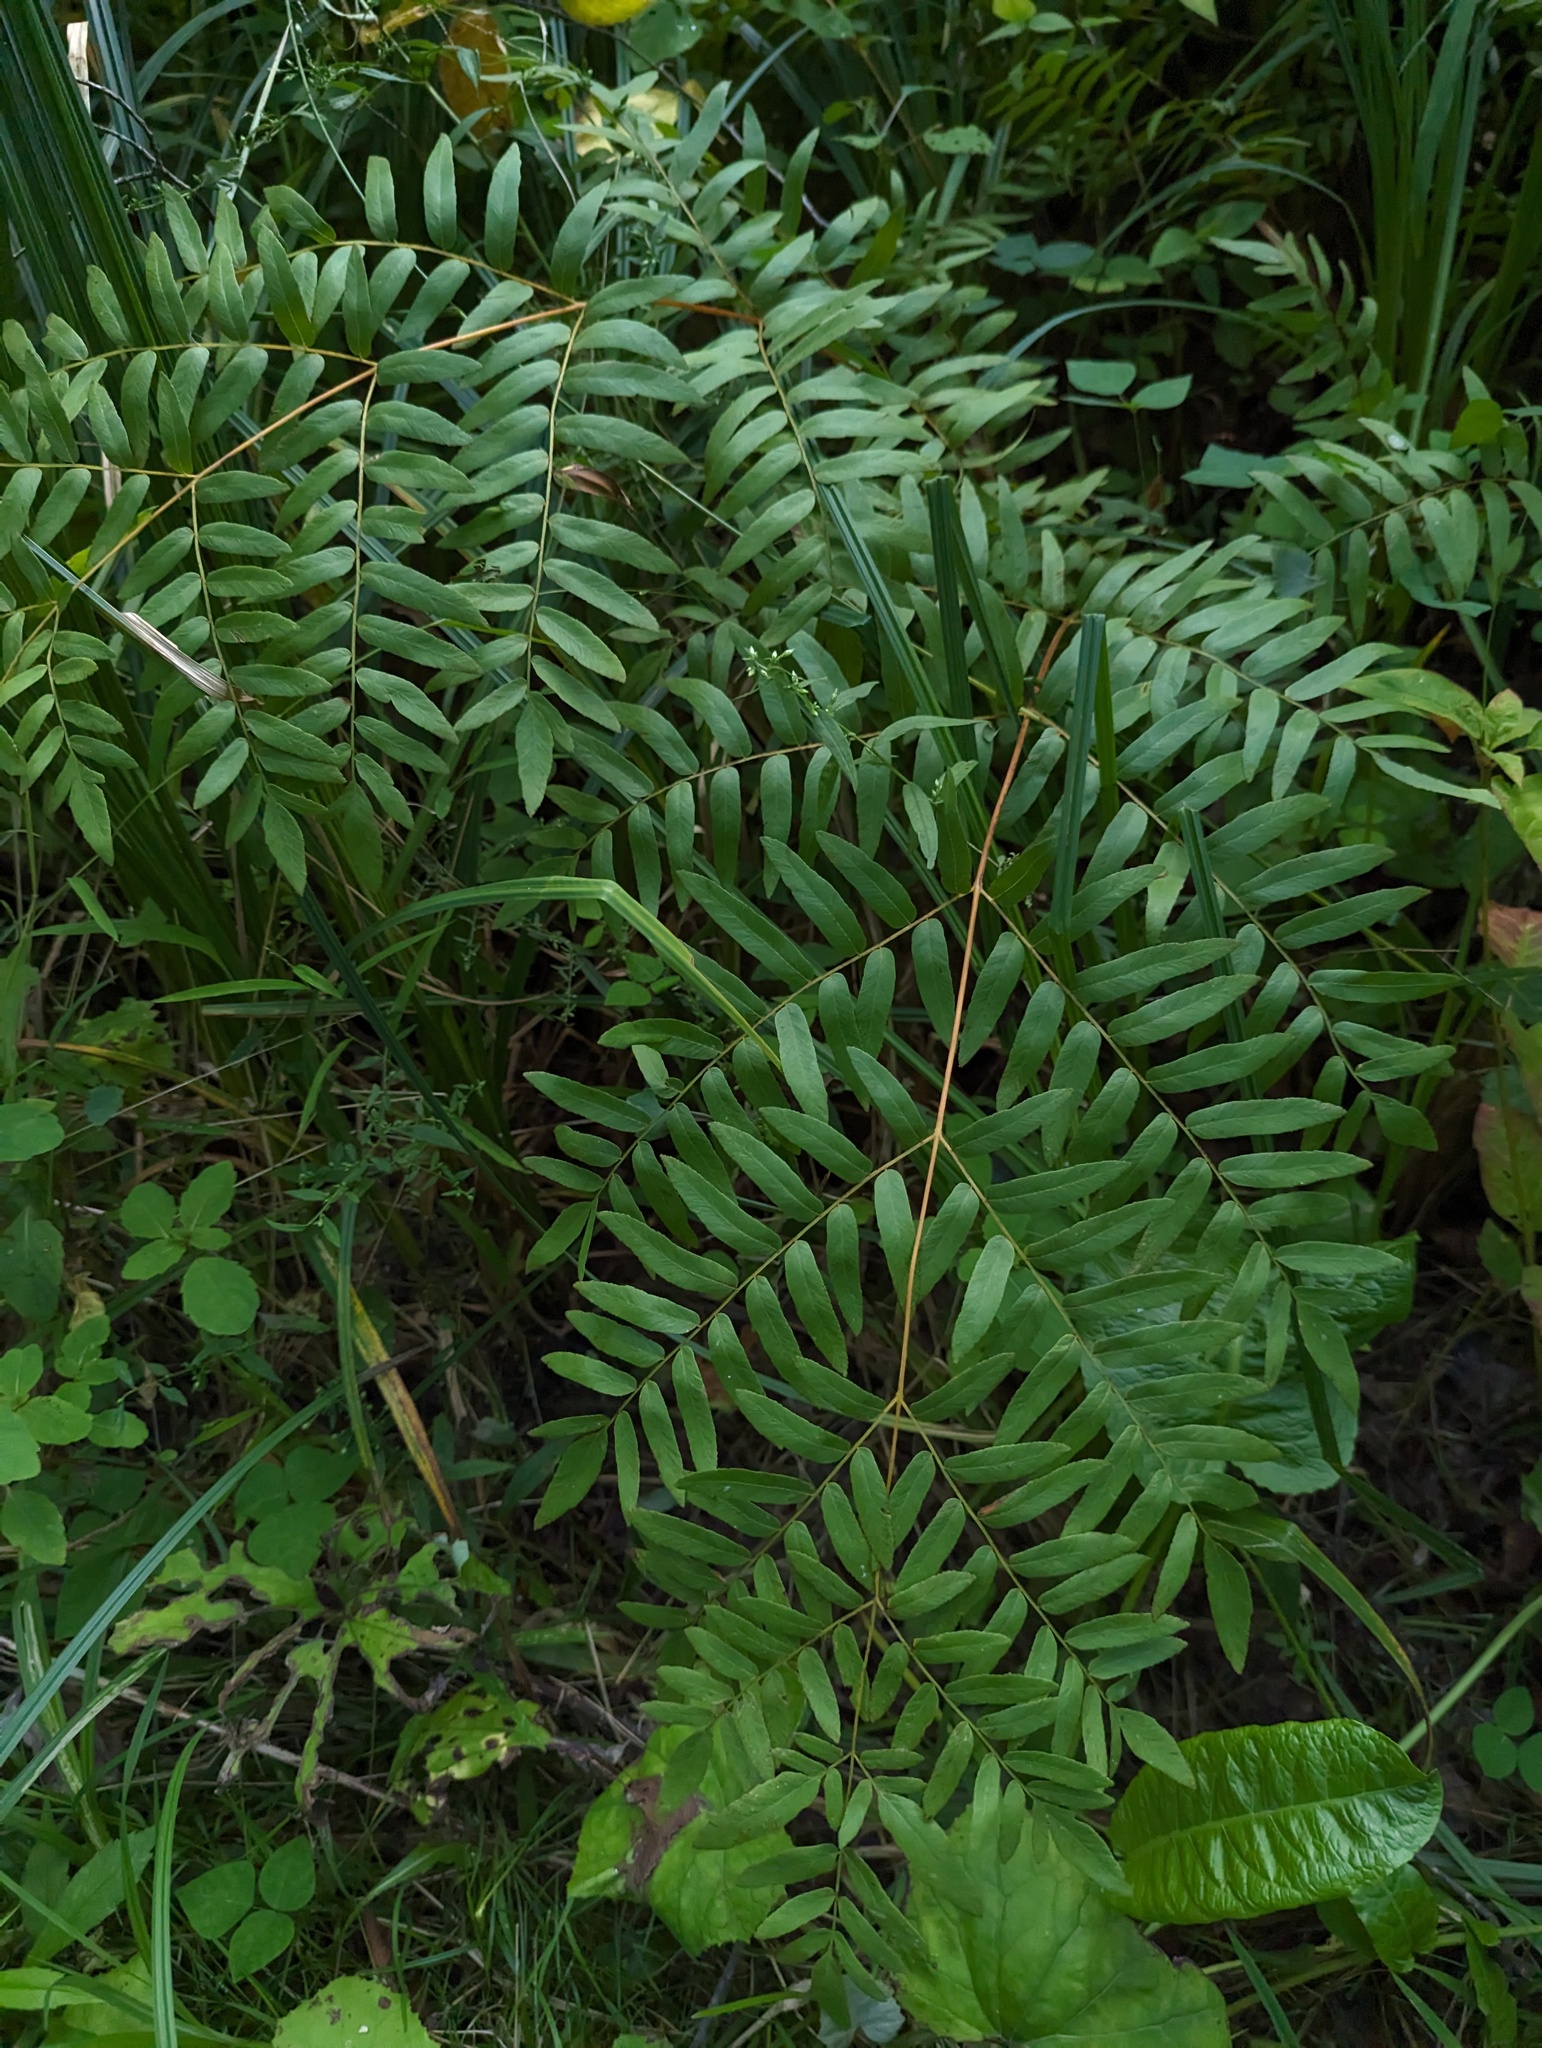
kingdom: Plantae
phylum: Tracheophyta
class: Polypodiopsida
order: Osmundales
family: Osmundaceae
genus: Osmunda
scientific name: Osmunda spectabilis
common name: American royal fern
